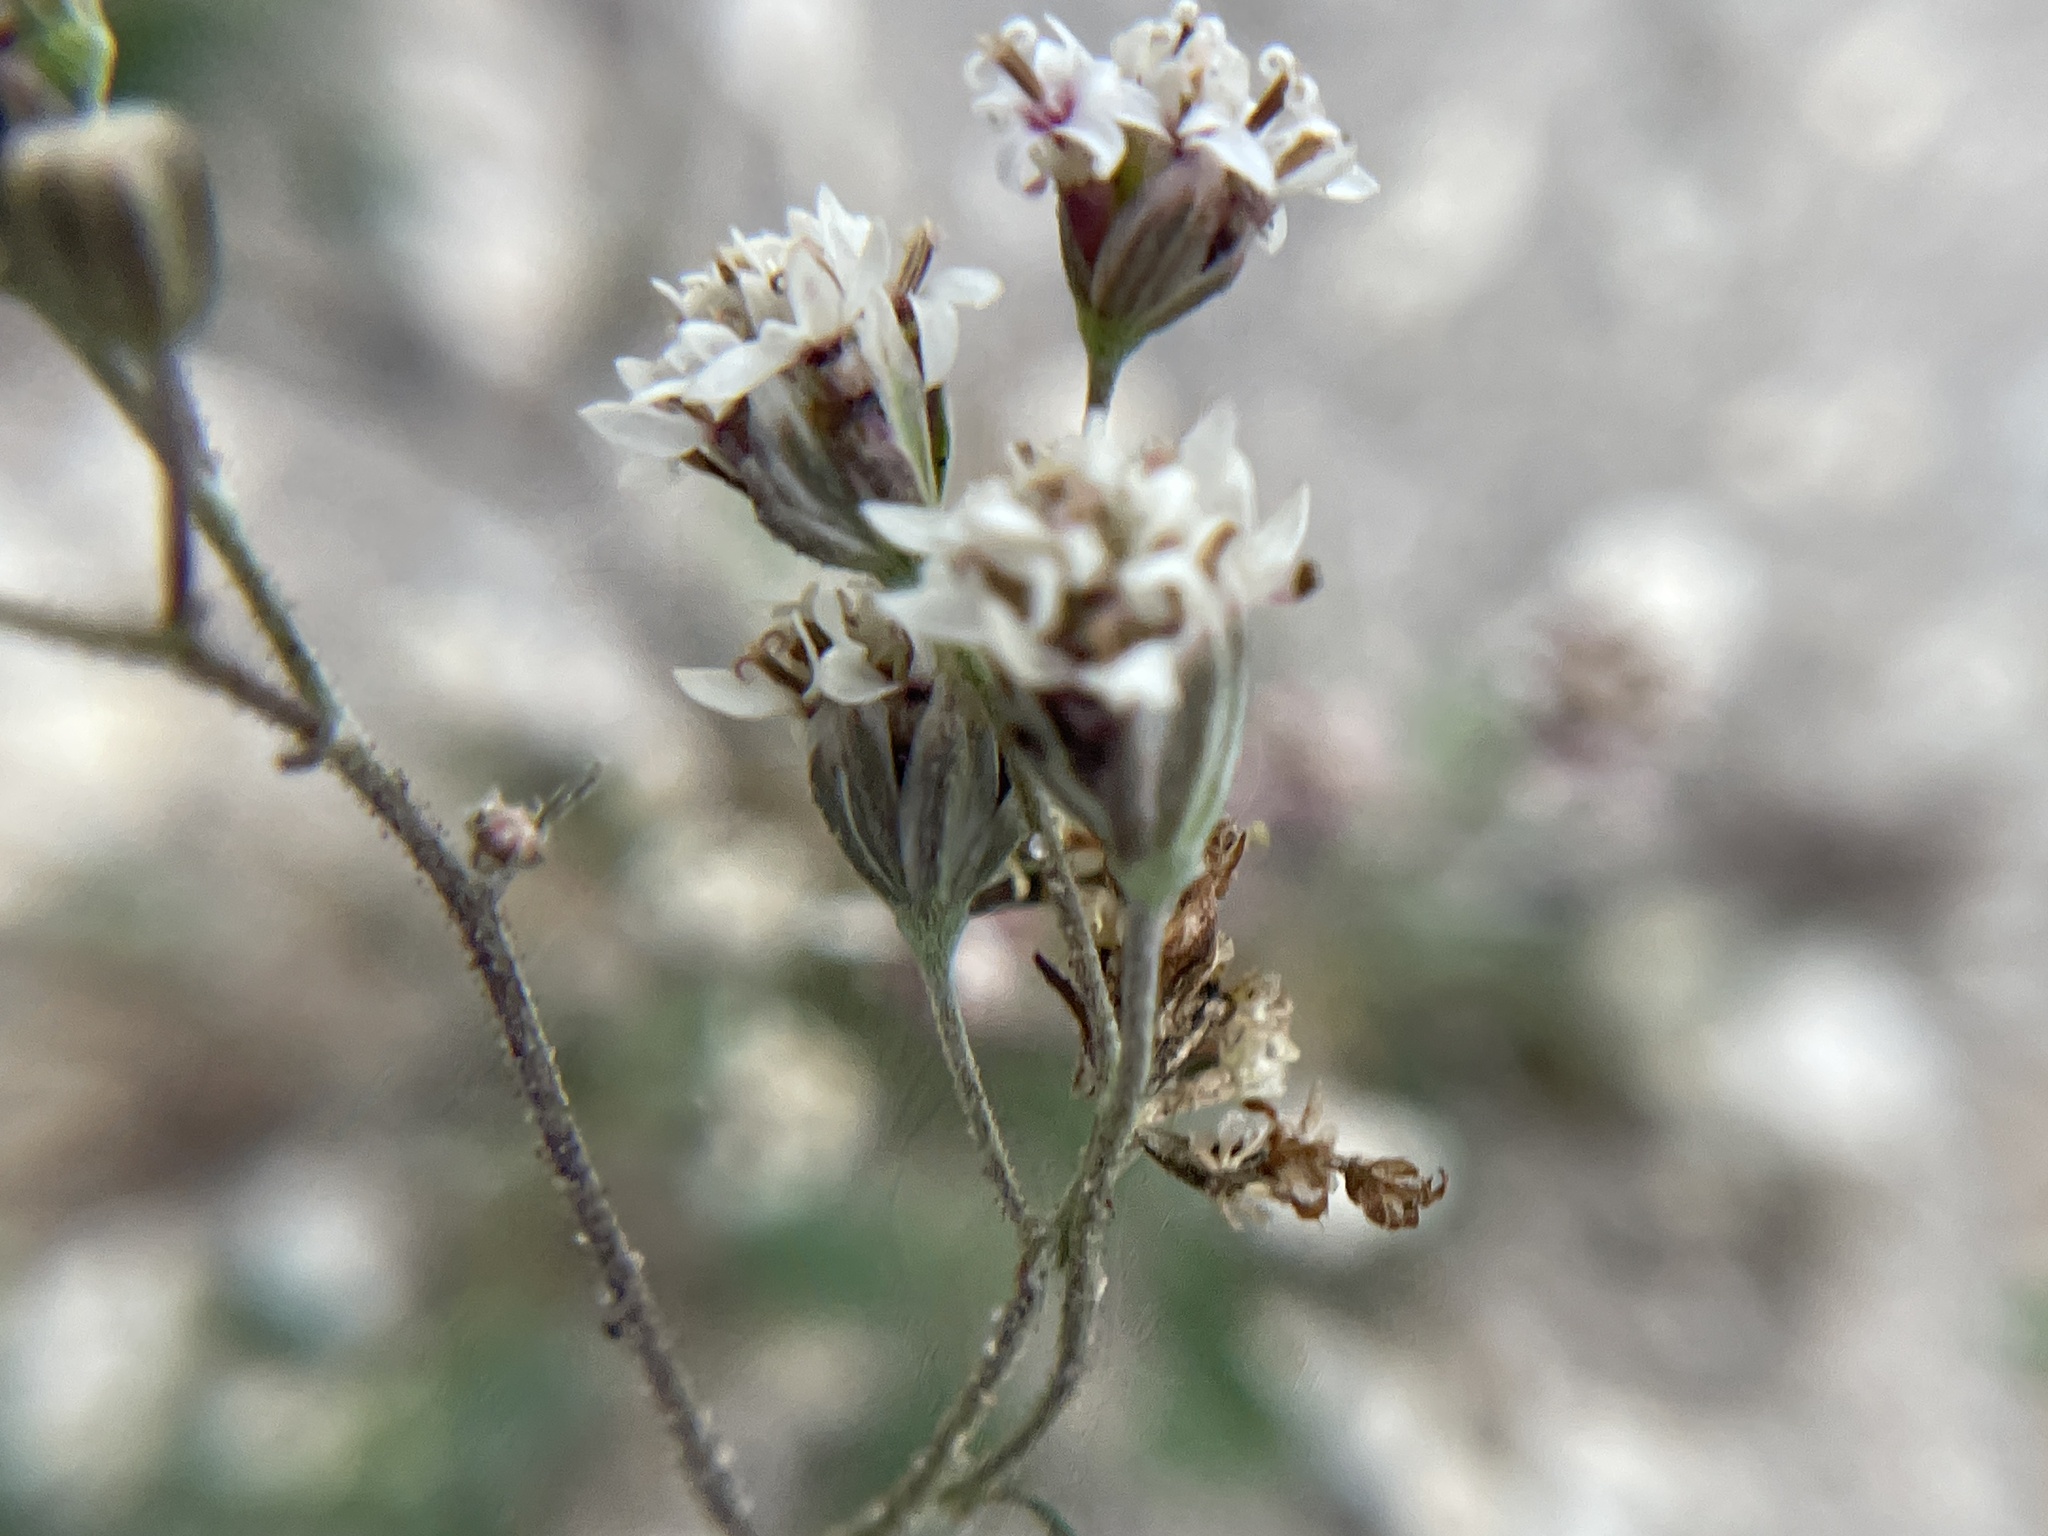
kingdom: Plantae
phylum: Tracheophyta
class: Magnoliopsida
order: Asterales
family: Asteraceae
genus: Florestina
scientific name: Florestina tripteris
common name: Sticky florestina
